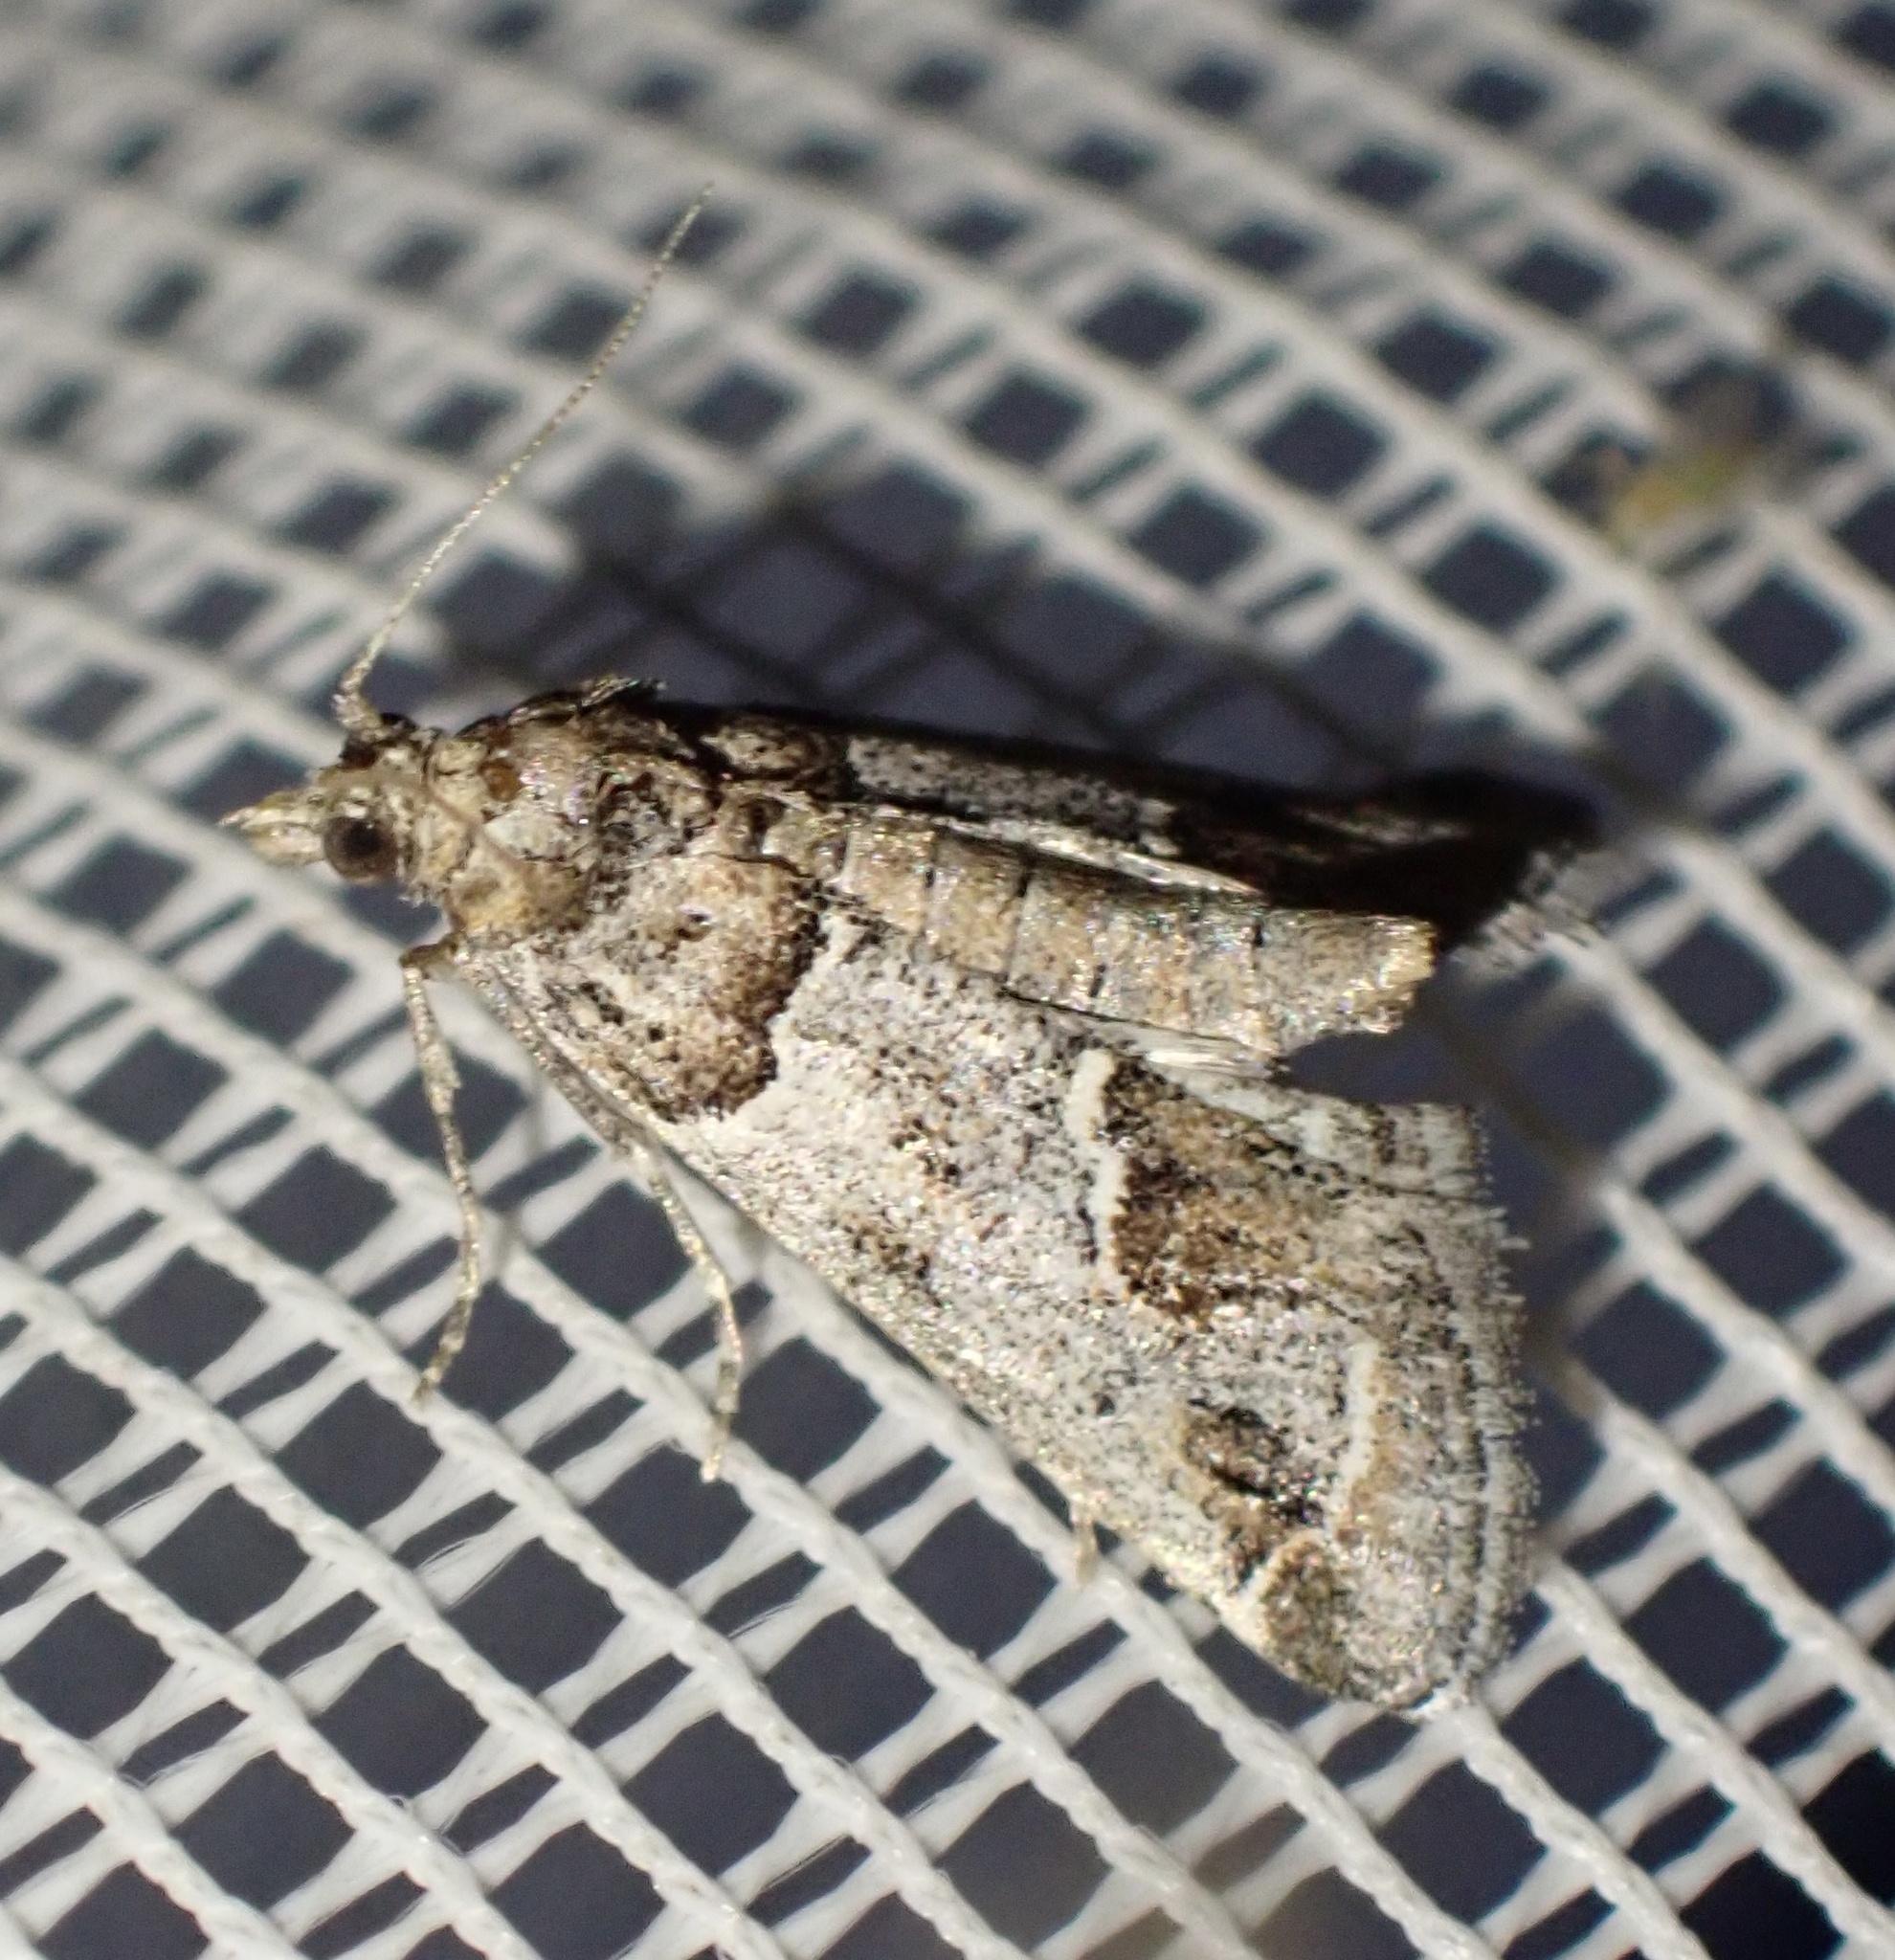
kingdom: Animalia
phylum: Arthropoda
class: Insecta
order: Lepidoptera
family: Pyralidae
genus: Hypotia
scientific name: Hypotia infulalis
